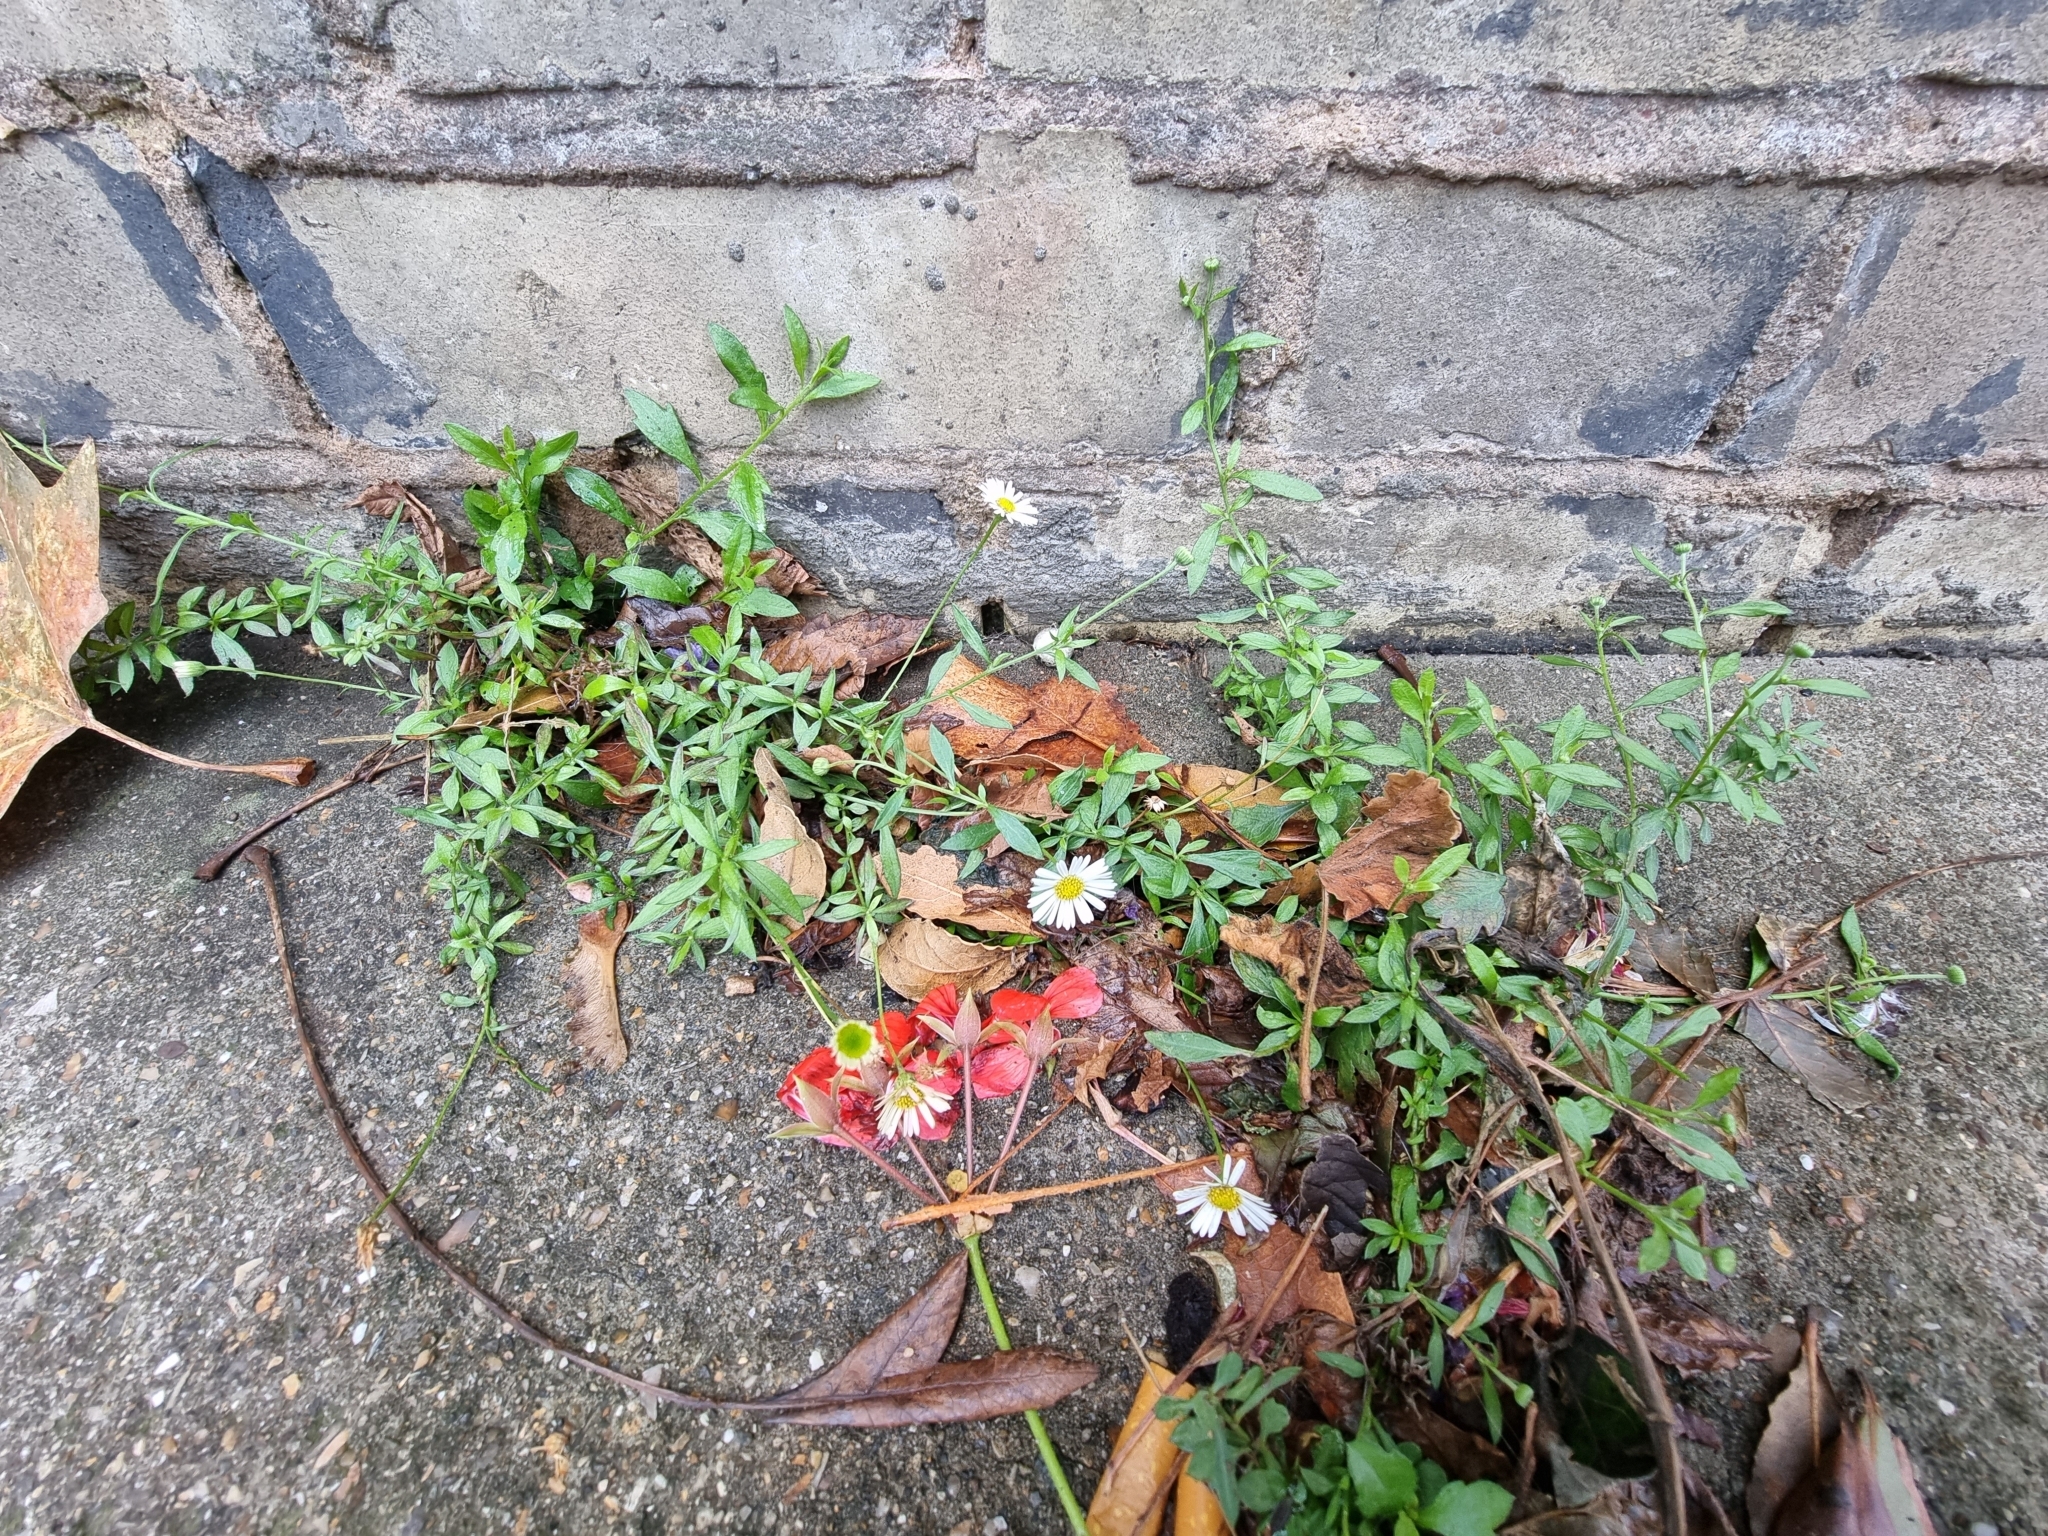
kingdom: Plantae
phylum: Tracheophyta
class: Magnoliopsida
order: Asterales
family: Asteraceae
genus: Erigeron
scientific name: Erigeron karvinskianus
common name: Mexican fleabane
